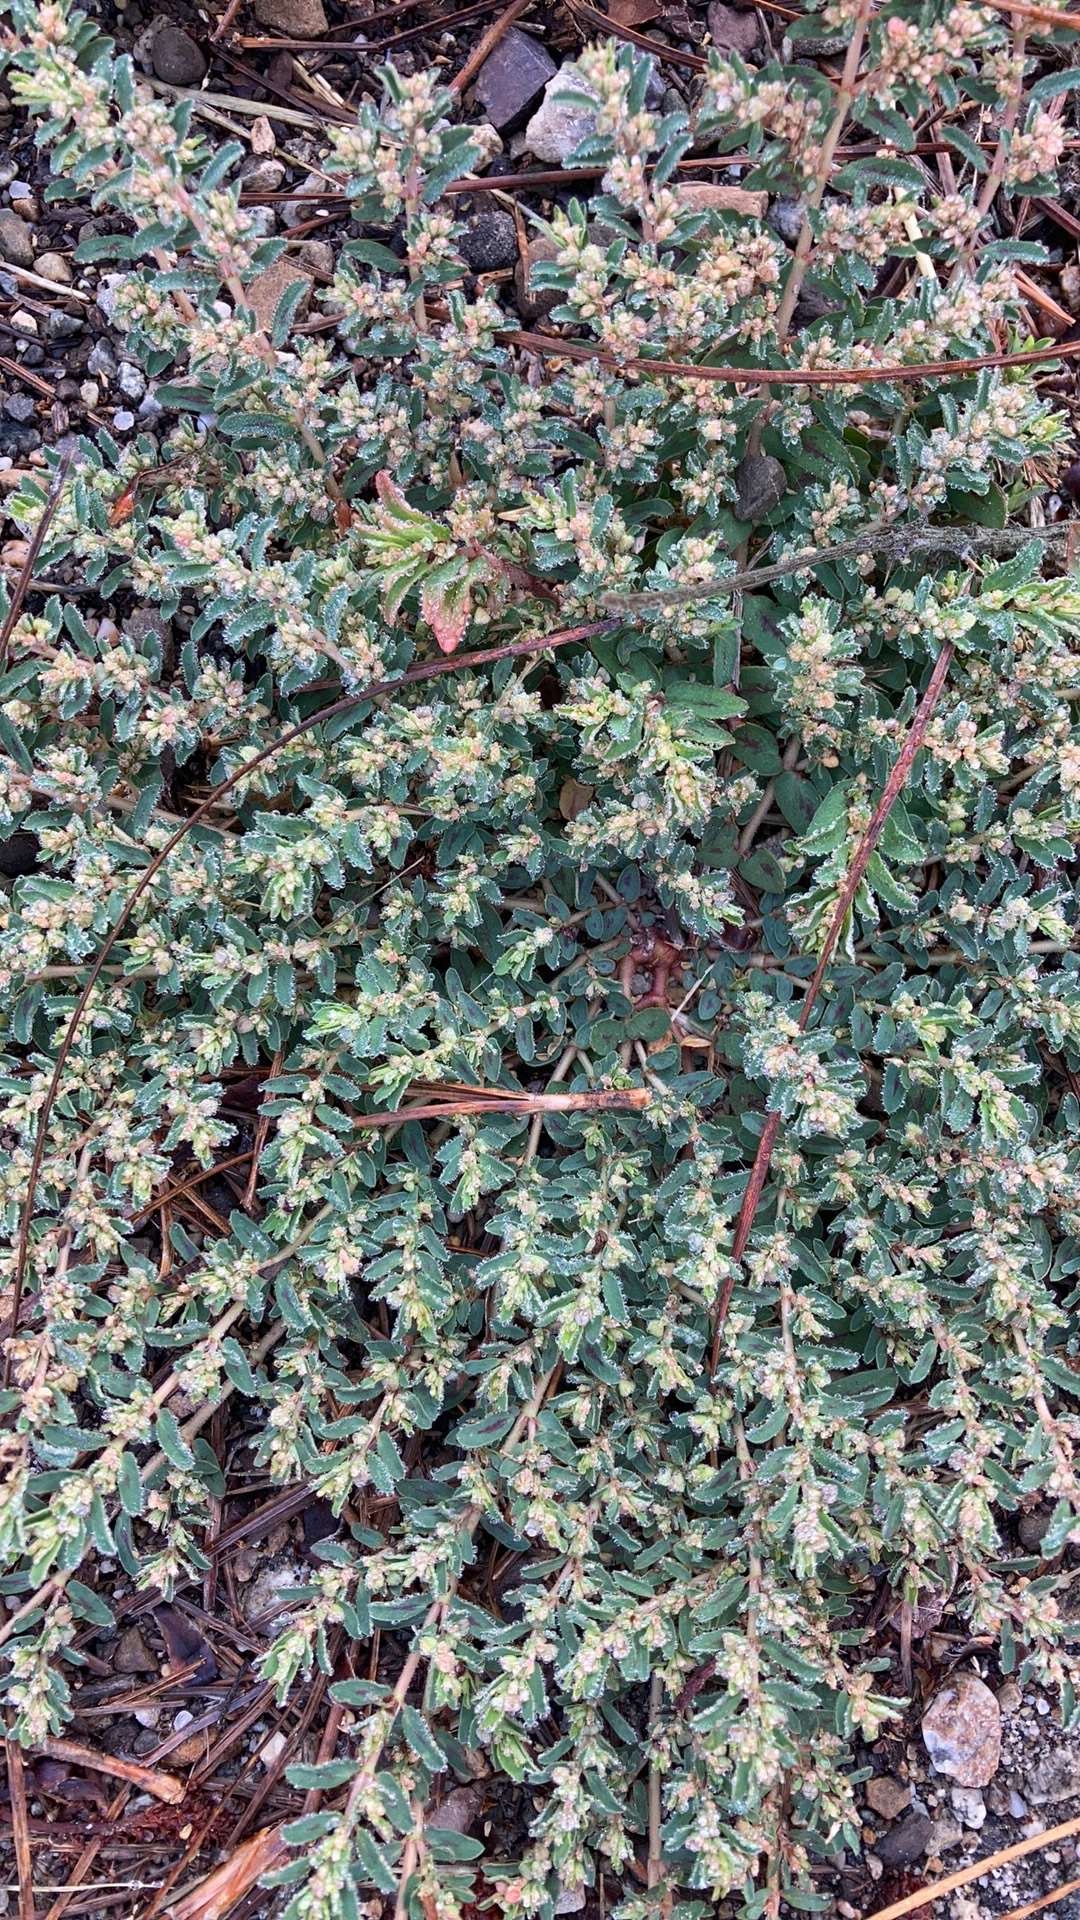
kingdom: Plantae
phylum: Tracheophyta
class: Magnoliopsida
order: Malpighiales
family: Euphorbiaceae
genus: Euphorbia
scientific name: Euphorbia maculata
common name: Spotted spurge
